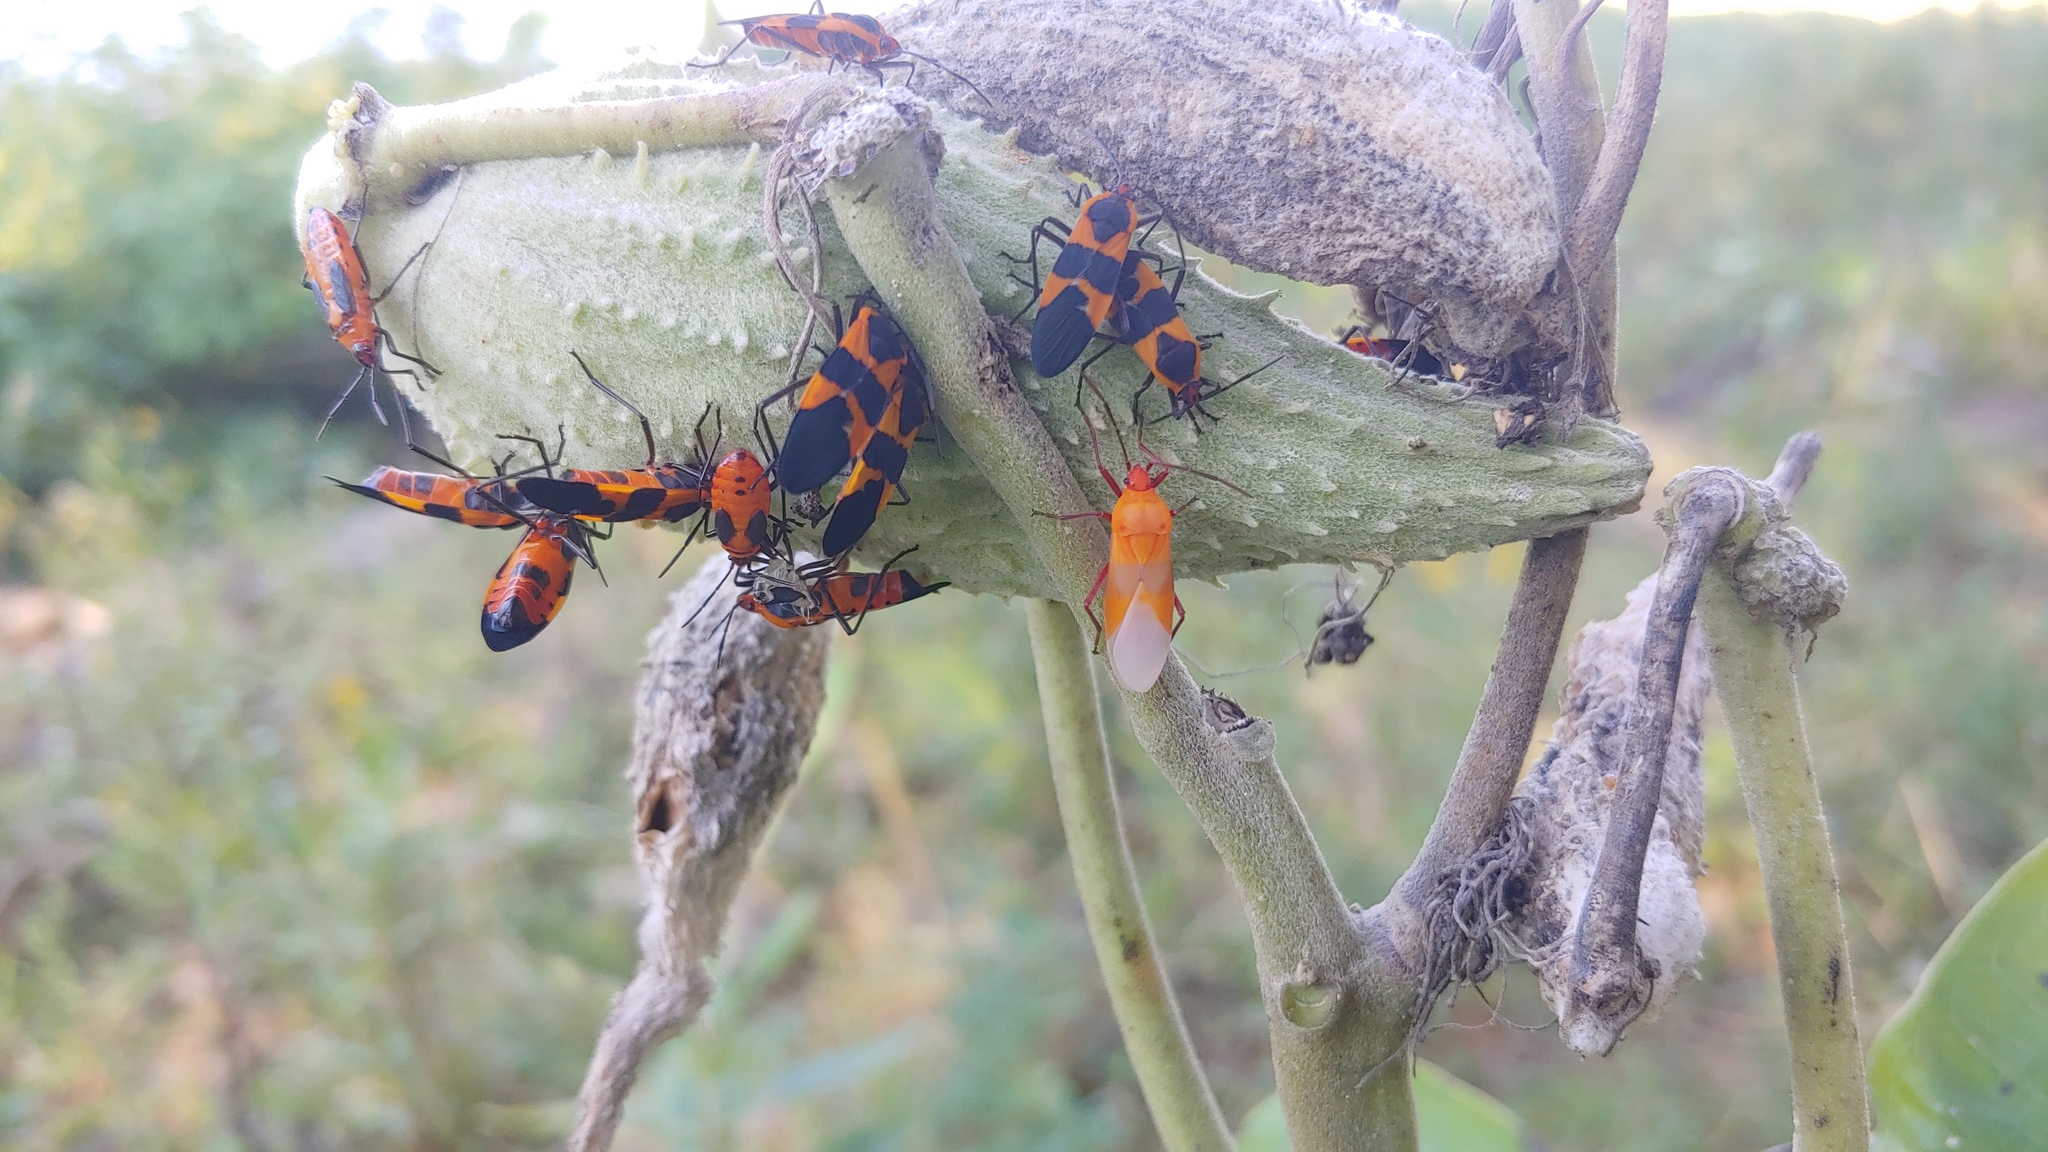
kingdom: Animalia
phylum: Arthropoda
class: Insecta
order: Hemiptera
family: Lygaeidae
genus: Oncopeltus
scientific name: Oncopeltus fasciatus
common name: Large milkweed bug
